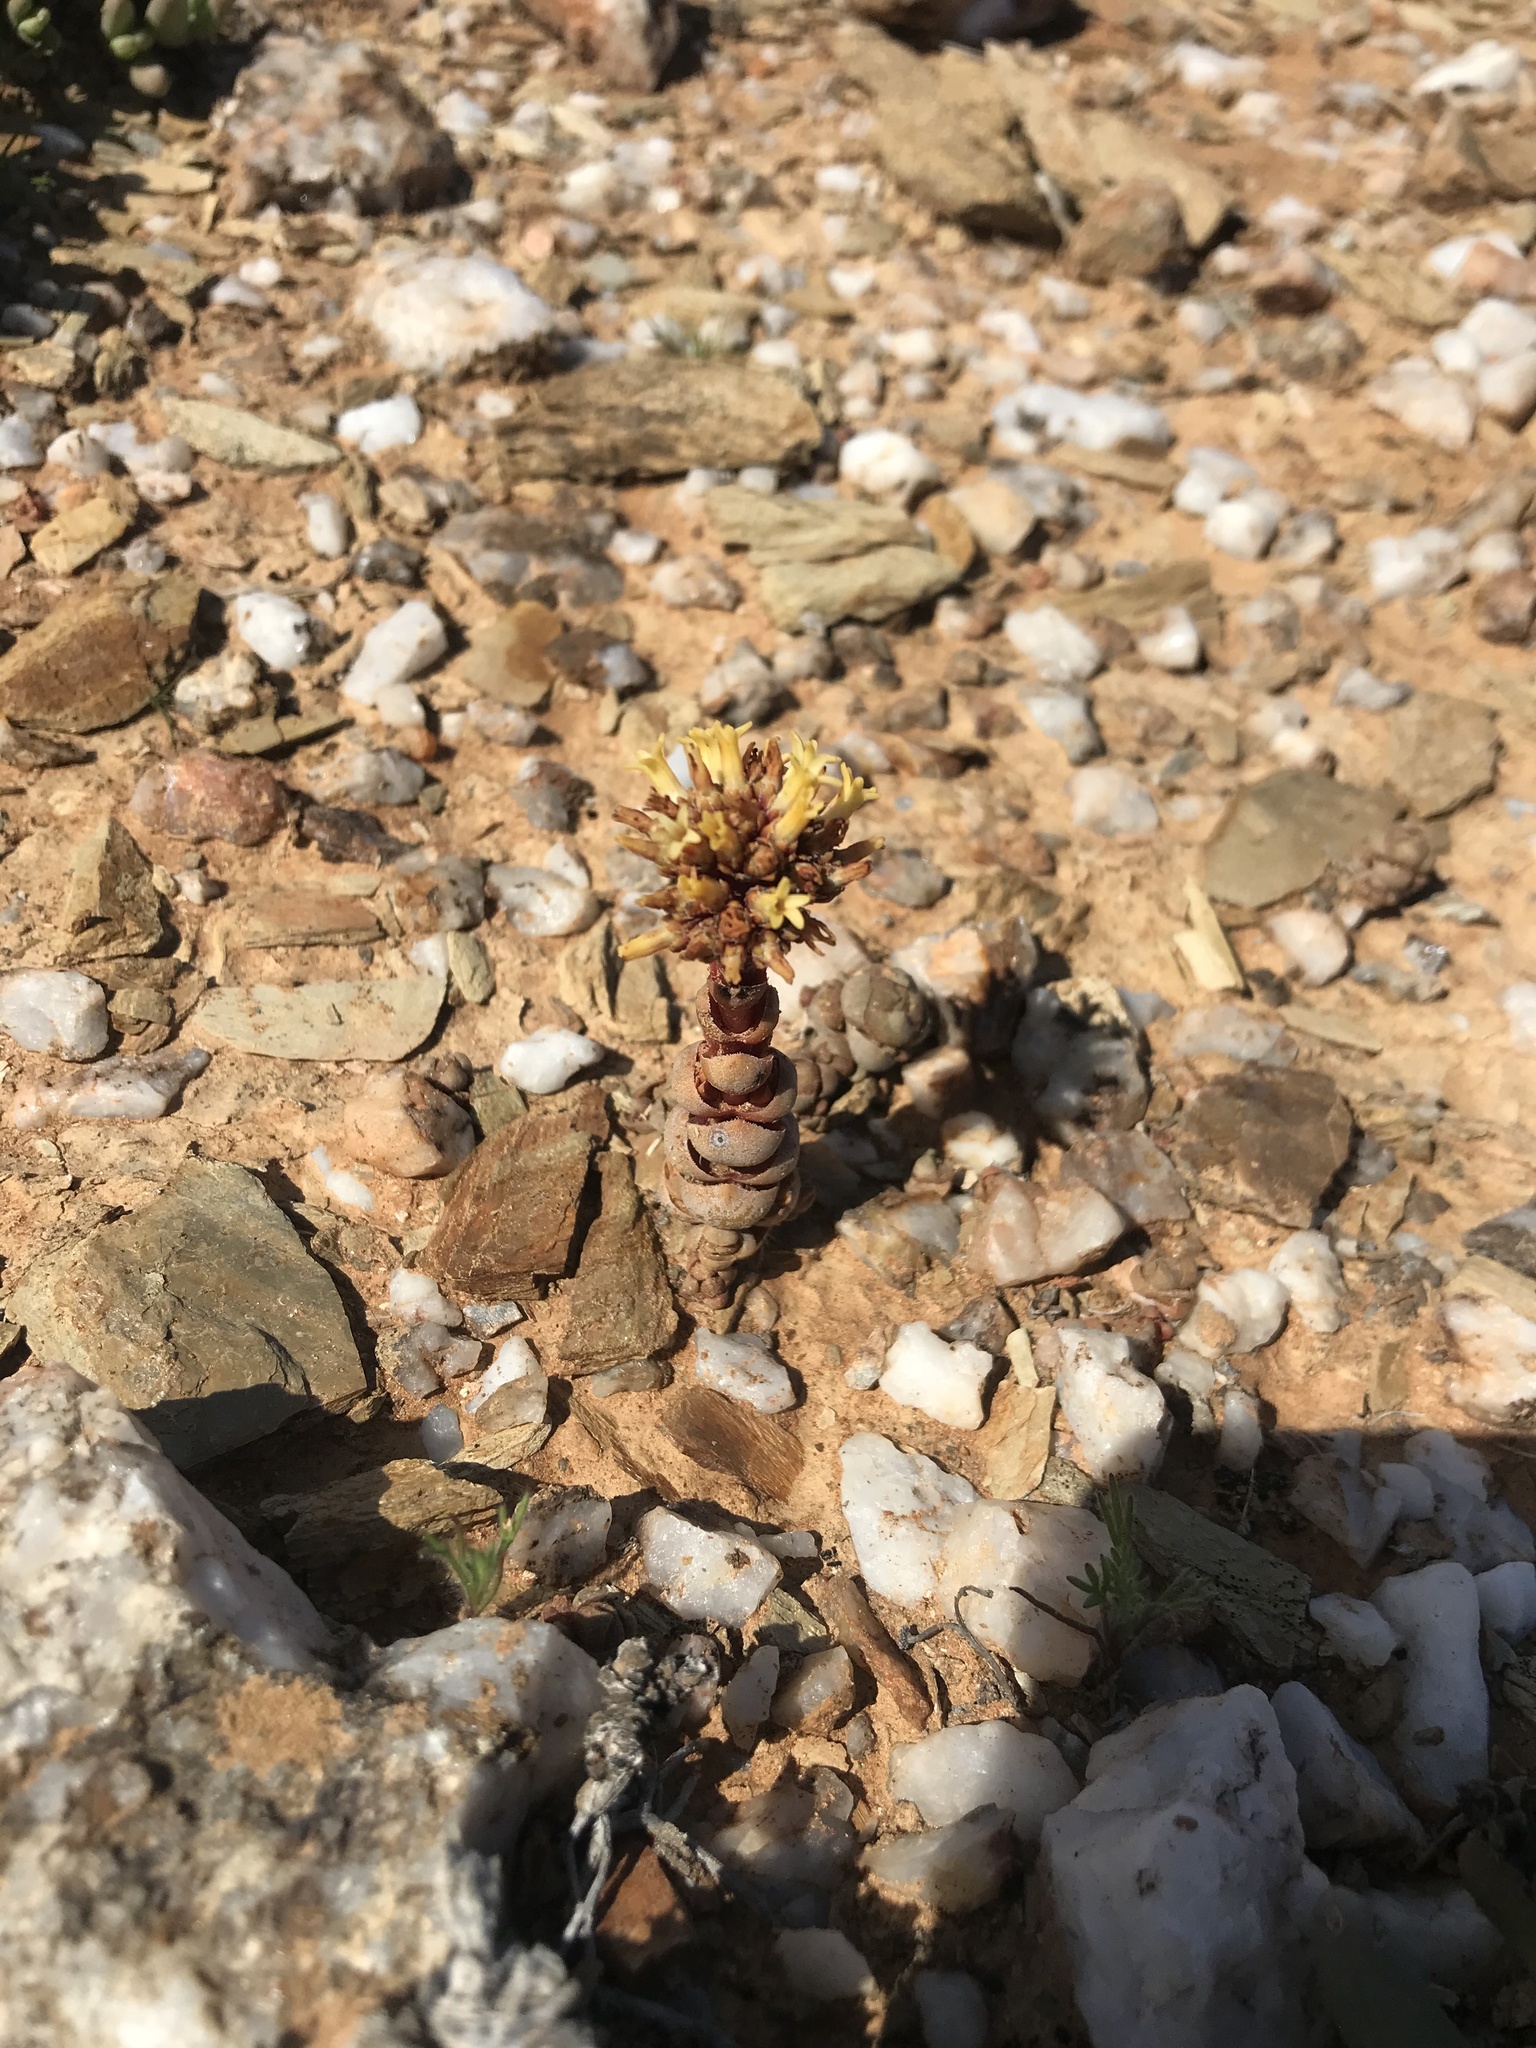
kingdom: Plantae
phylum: Tracheophyta
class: Magnoliopsida
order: Saxifragales
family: Crassulaceae
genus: Crassula
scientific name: Crassula columnaris
